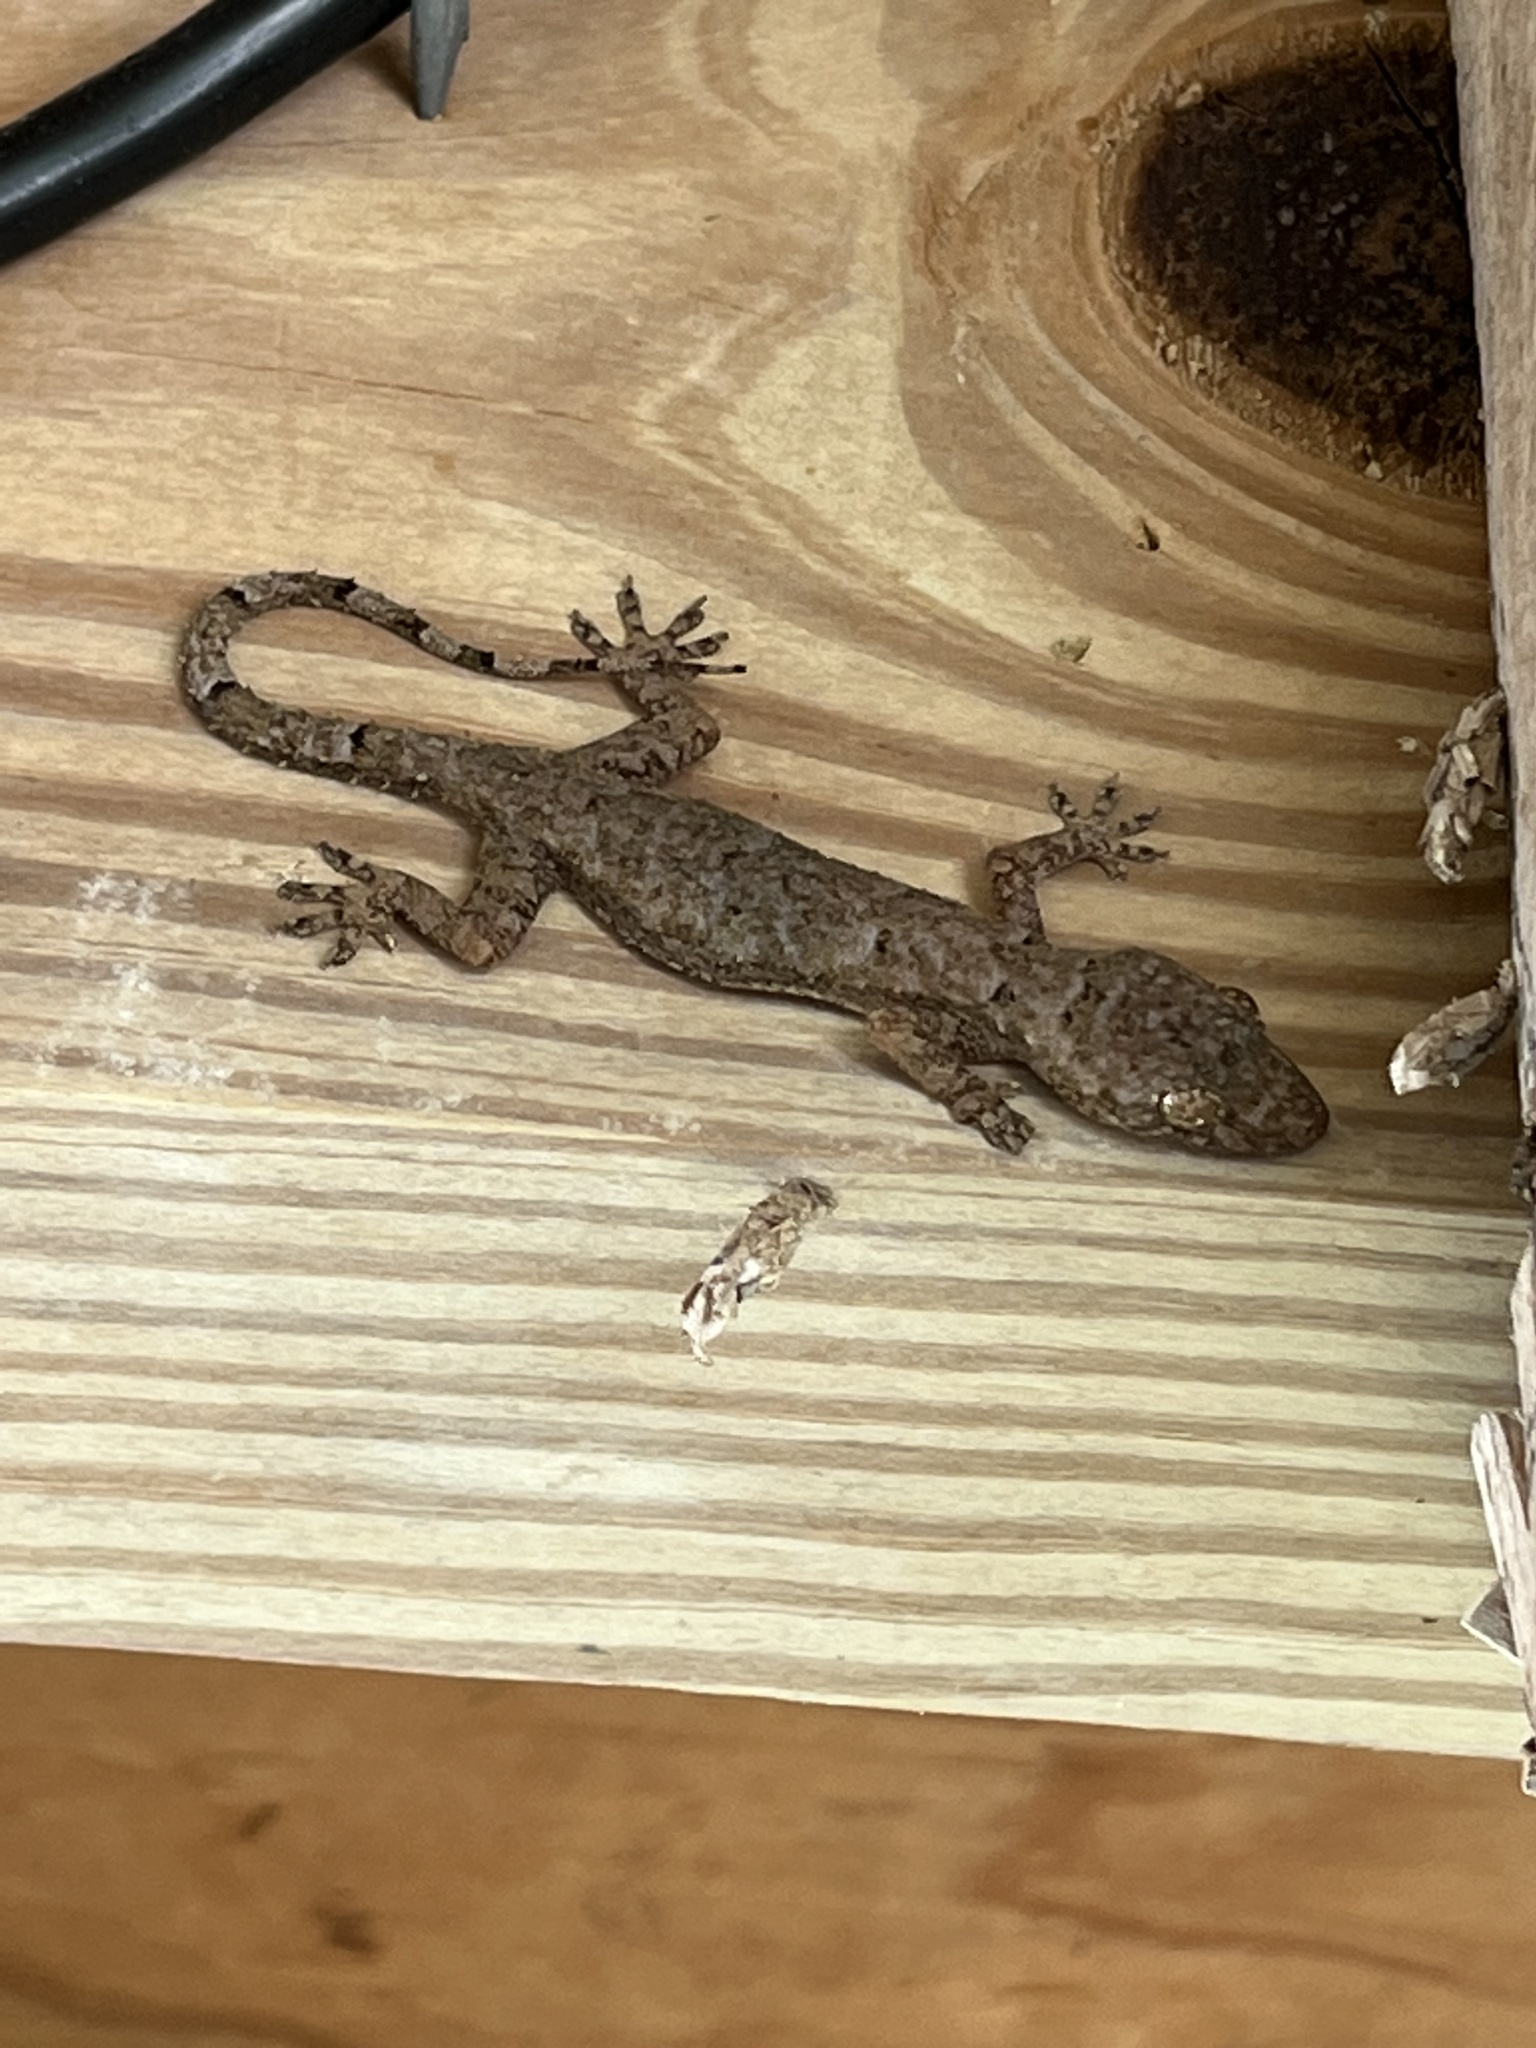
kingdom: Animalia
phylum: Chordata
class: Squamata
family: Gekkonidae
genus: Hemidactylus
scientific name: Hemidactylus mabouia
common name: House gecko
